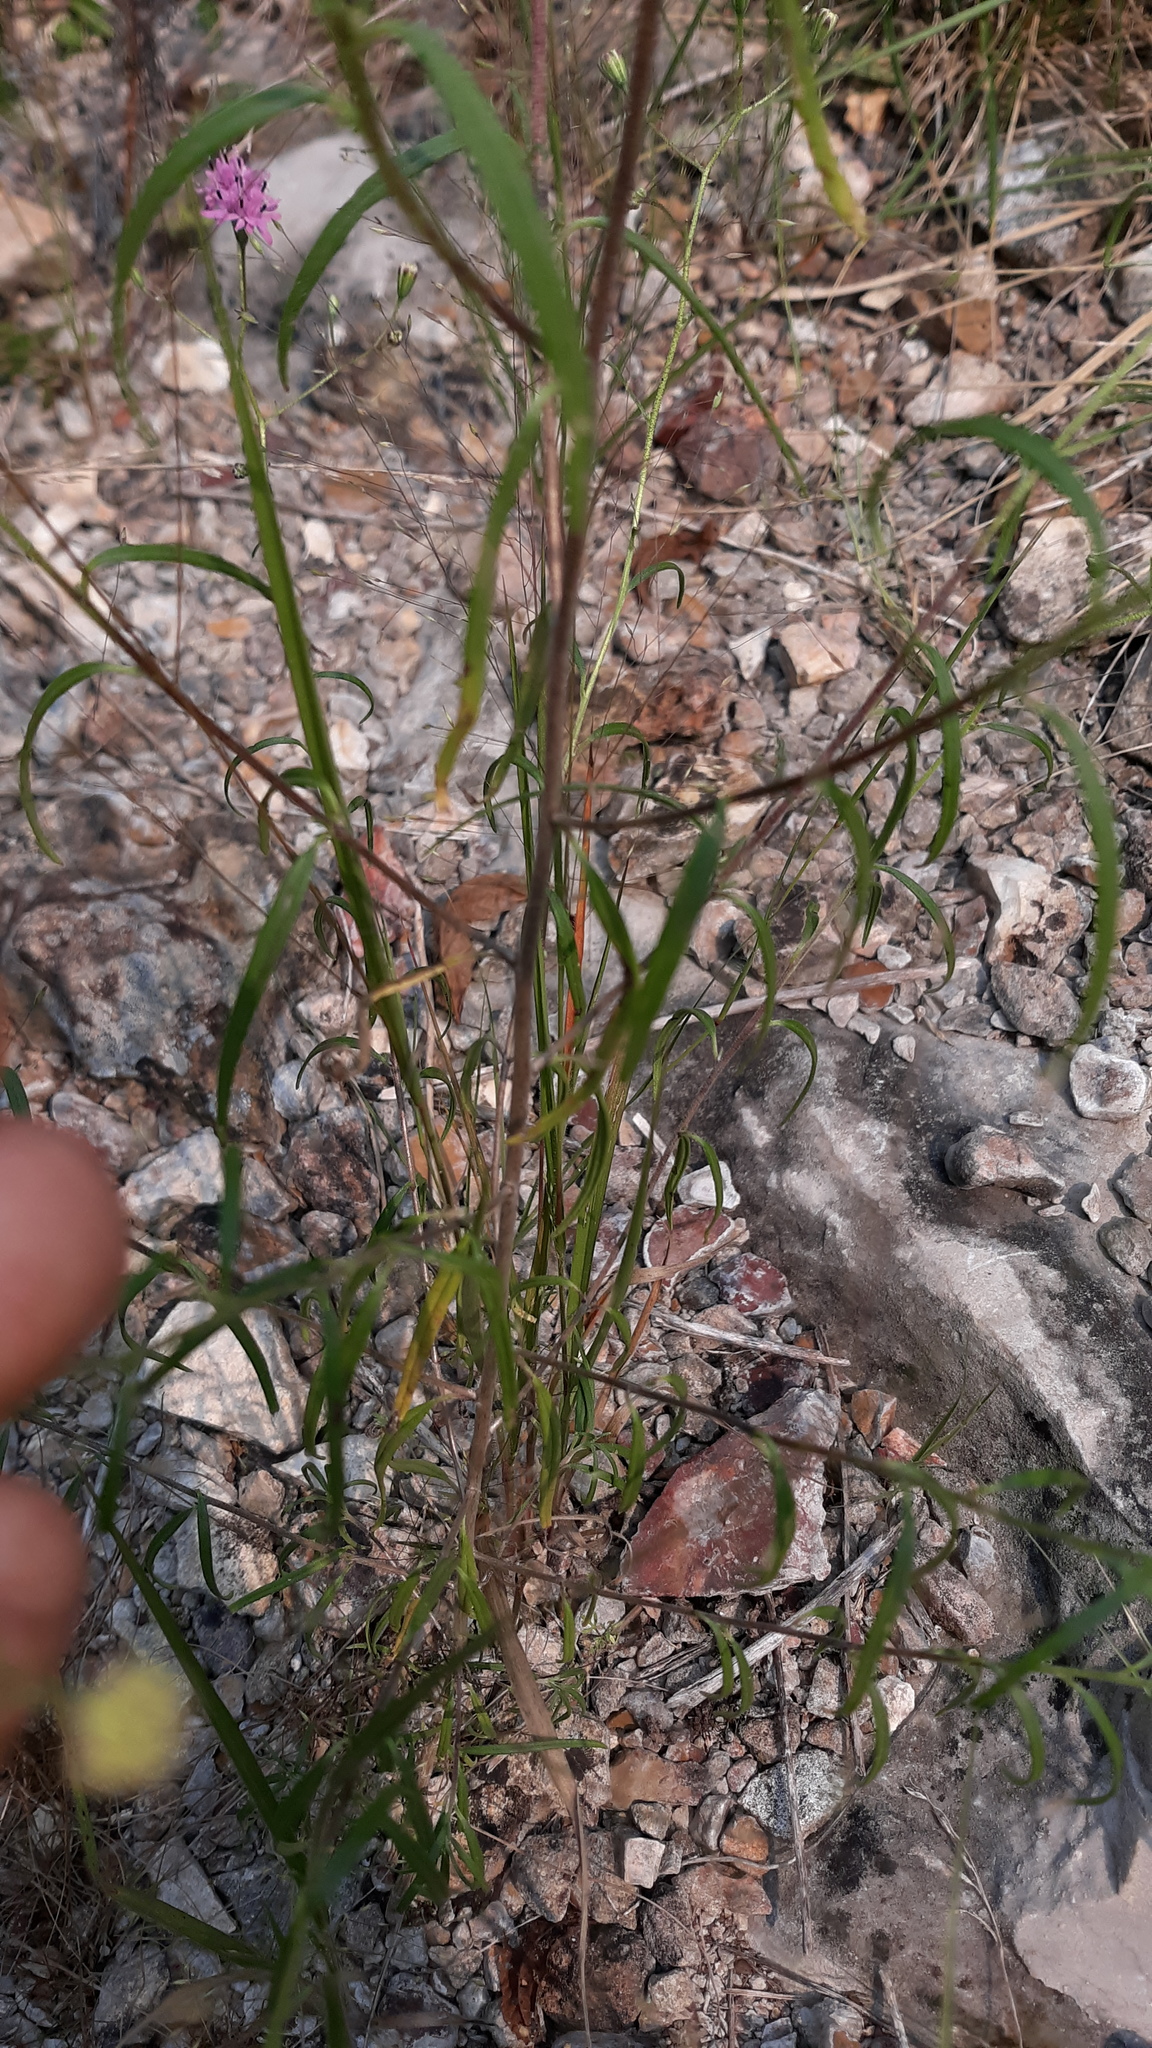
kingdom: Plantae
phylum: Tracheophyta
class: Magnoliopsida
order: Asterales
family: Asteraceae
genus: Palafoxia
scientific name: Palafoxia callosa
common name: Small palafox
